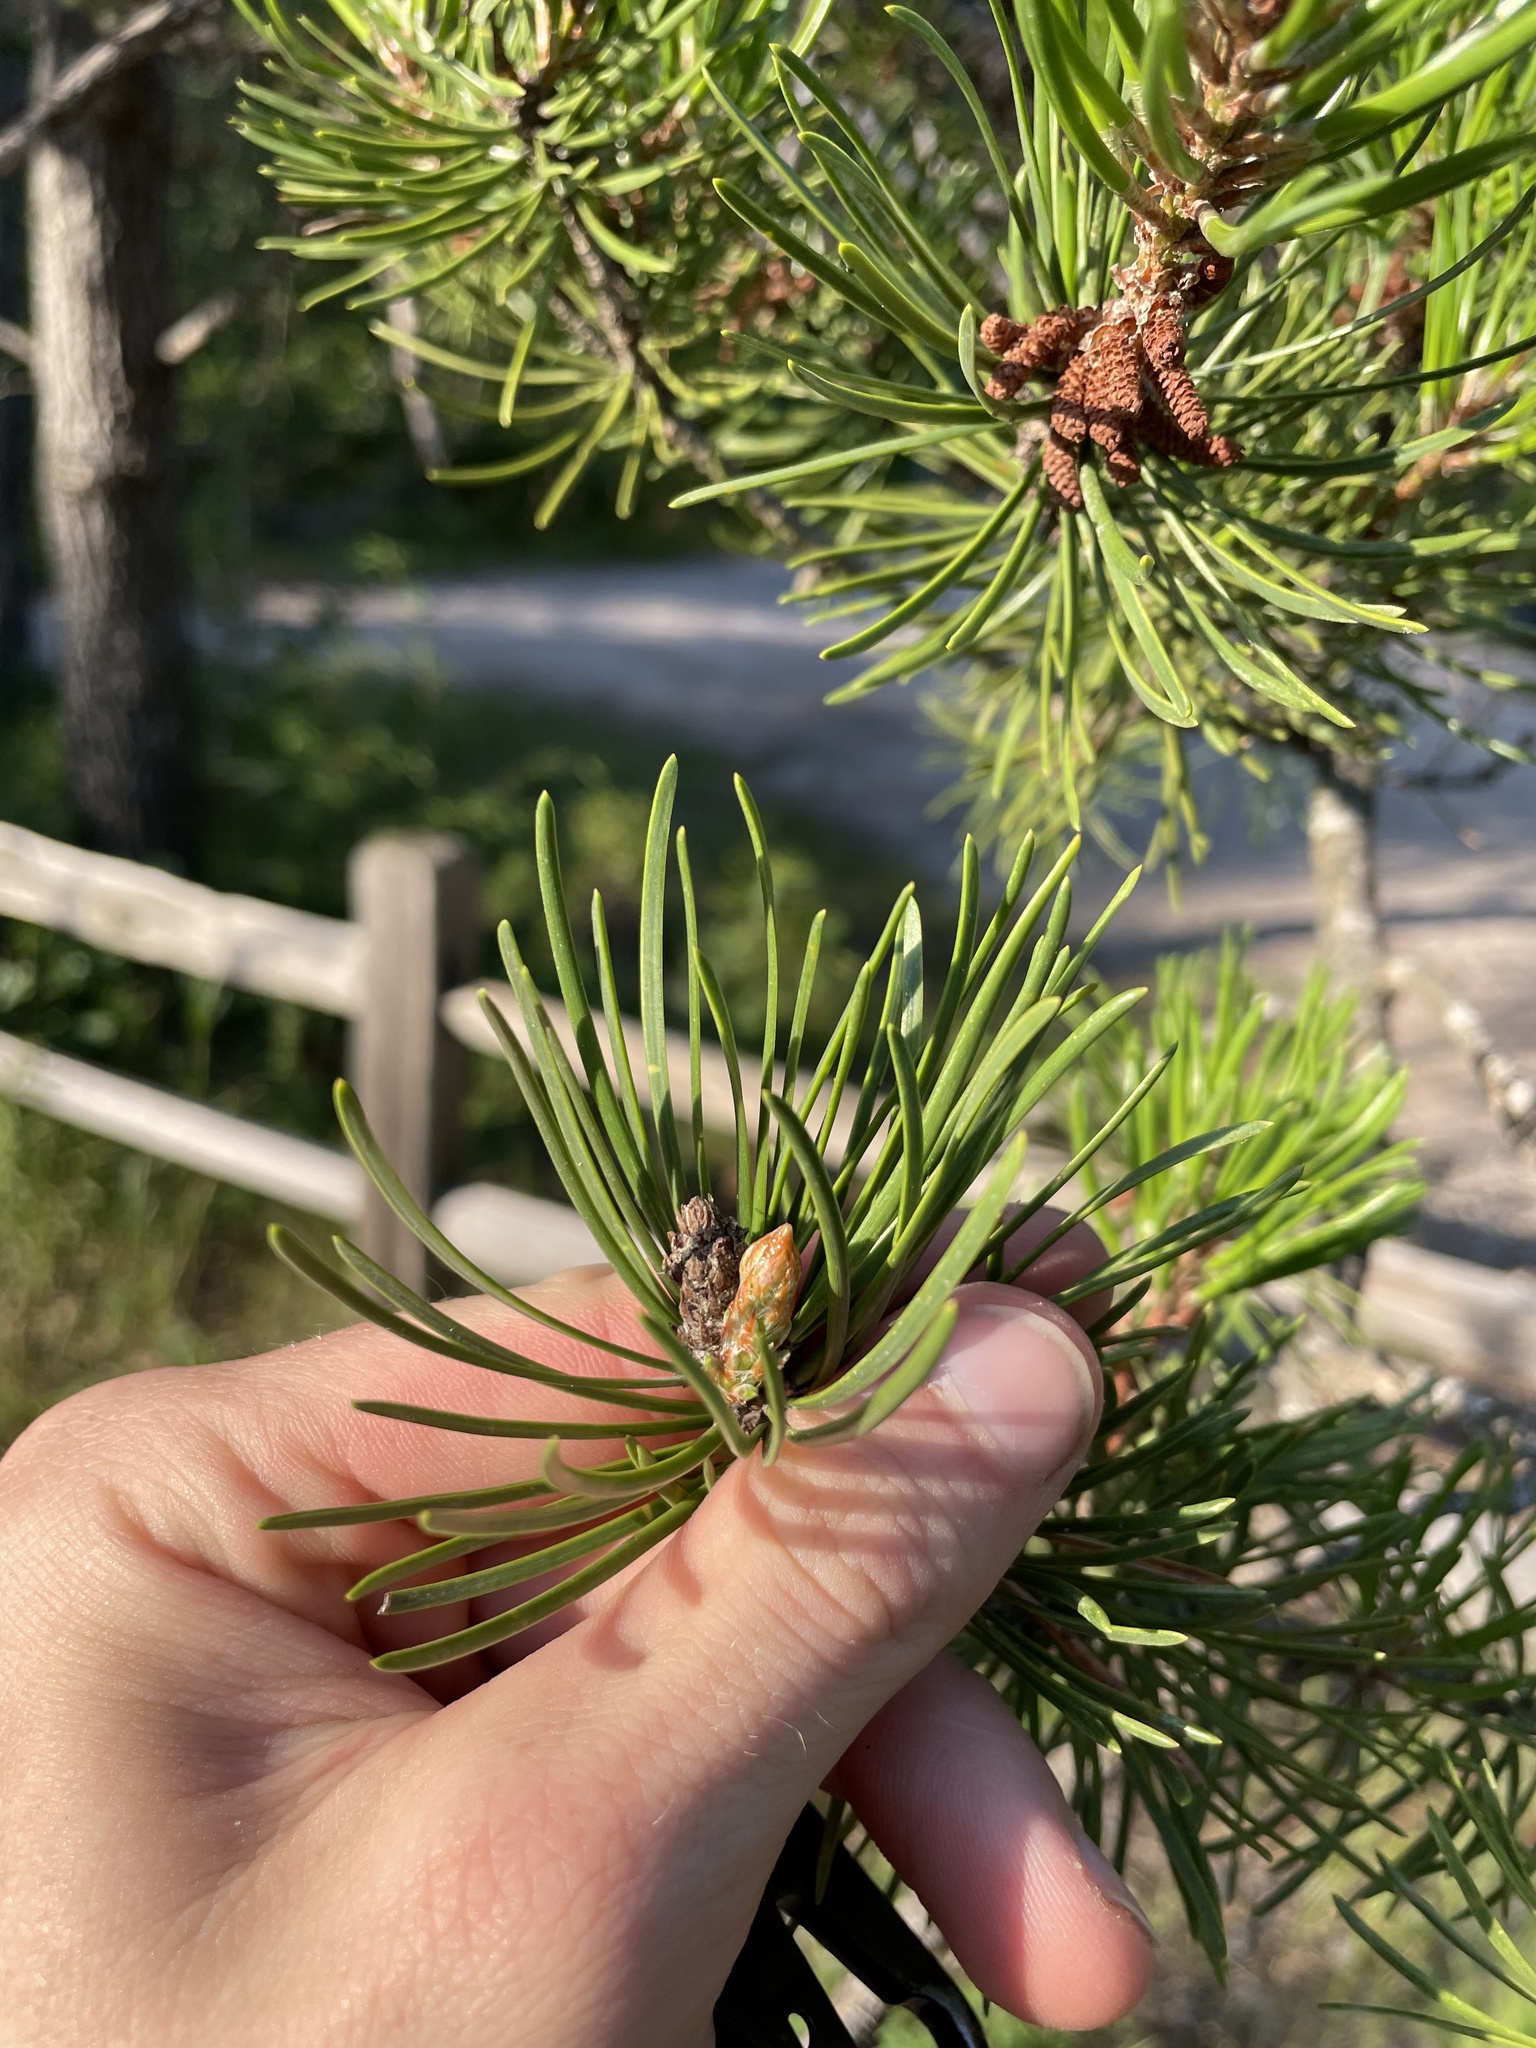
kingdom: Plantae
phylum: Tracheophyta
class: Pinopsida
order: Pinales
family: Pinaceae
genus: Pinus
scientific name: Pinus banksiana
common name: Jack pine
